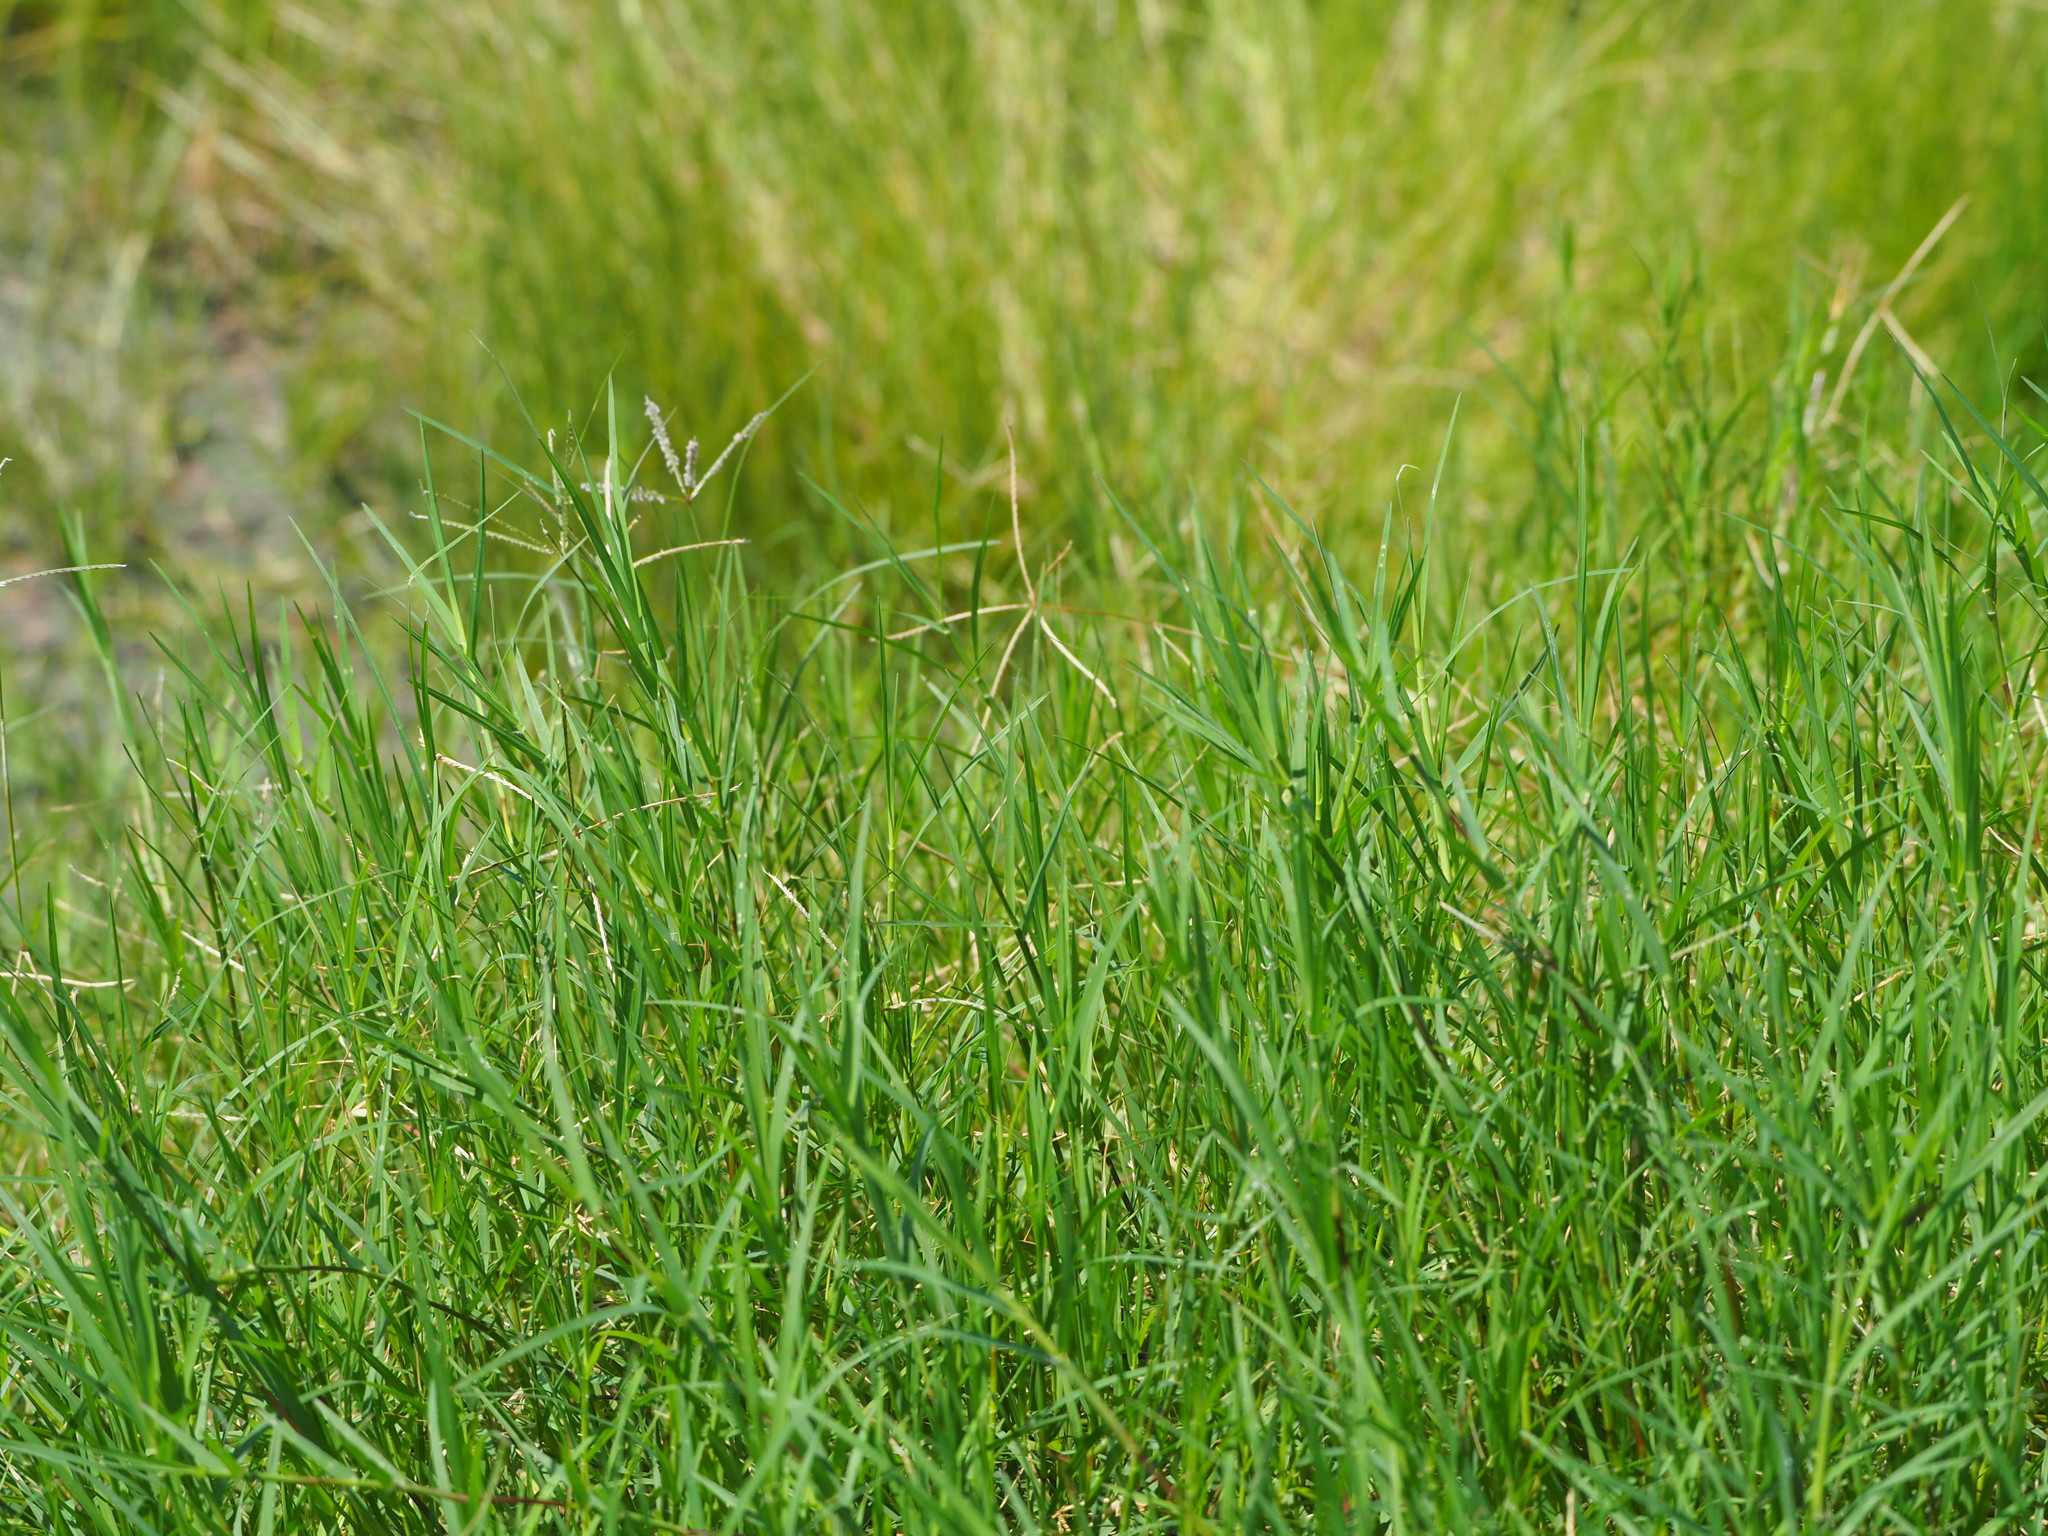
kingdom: Plantae
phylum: Tracheophyta
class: Liliopsida
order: Poales
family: Poaceae
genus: Cynodon
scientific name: Cynodon dactylon
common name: Bermuda grass
